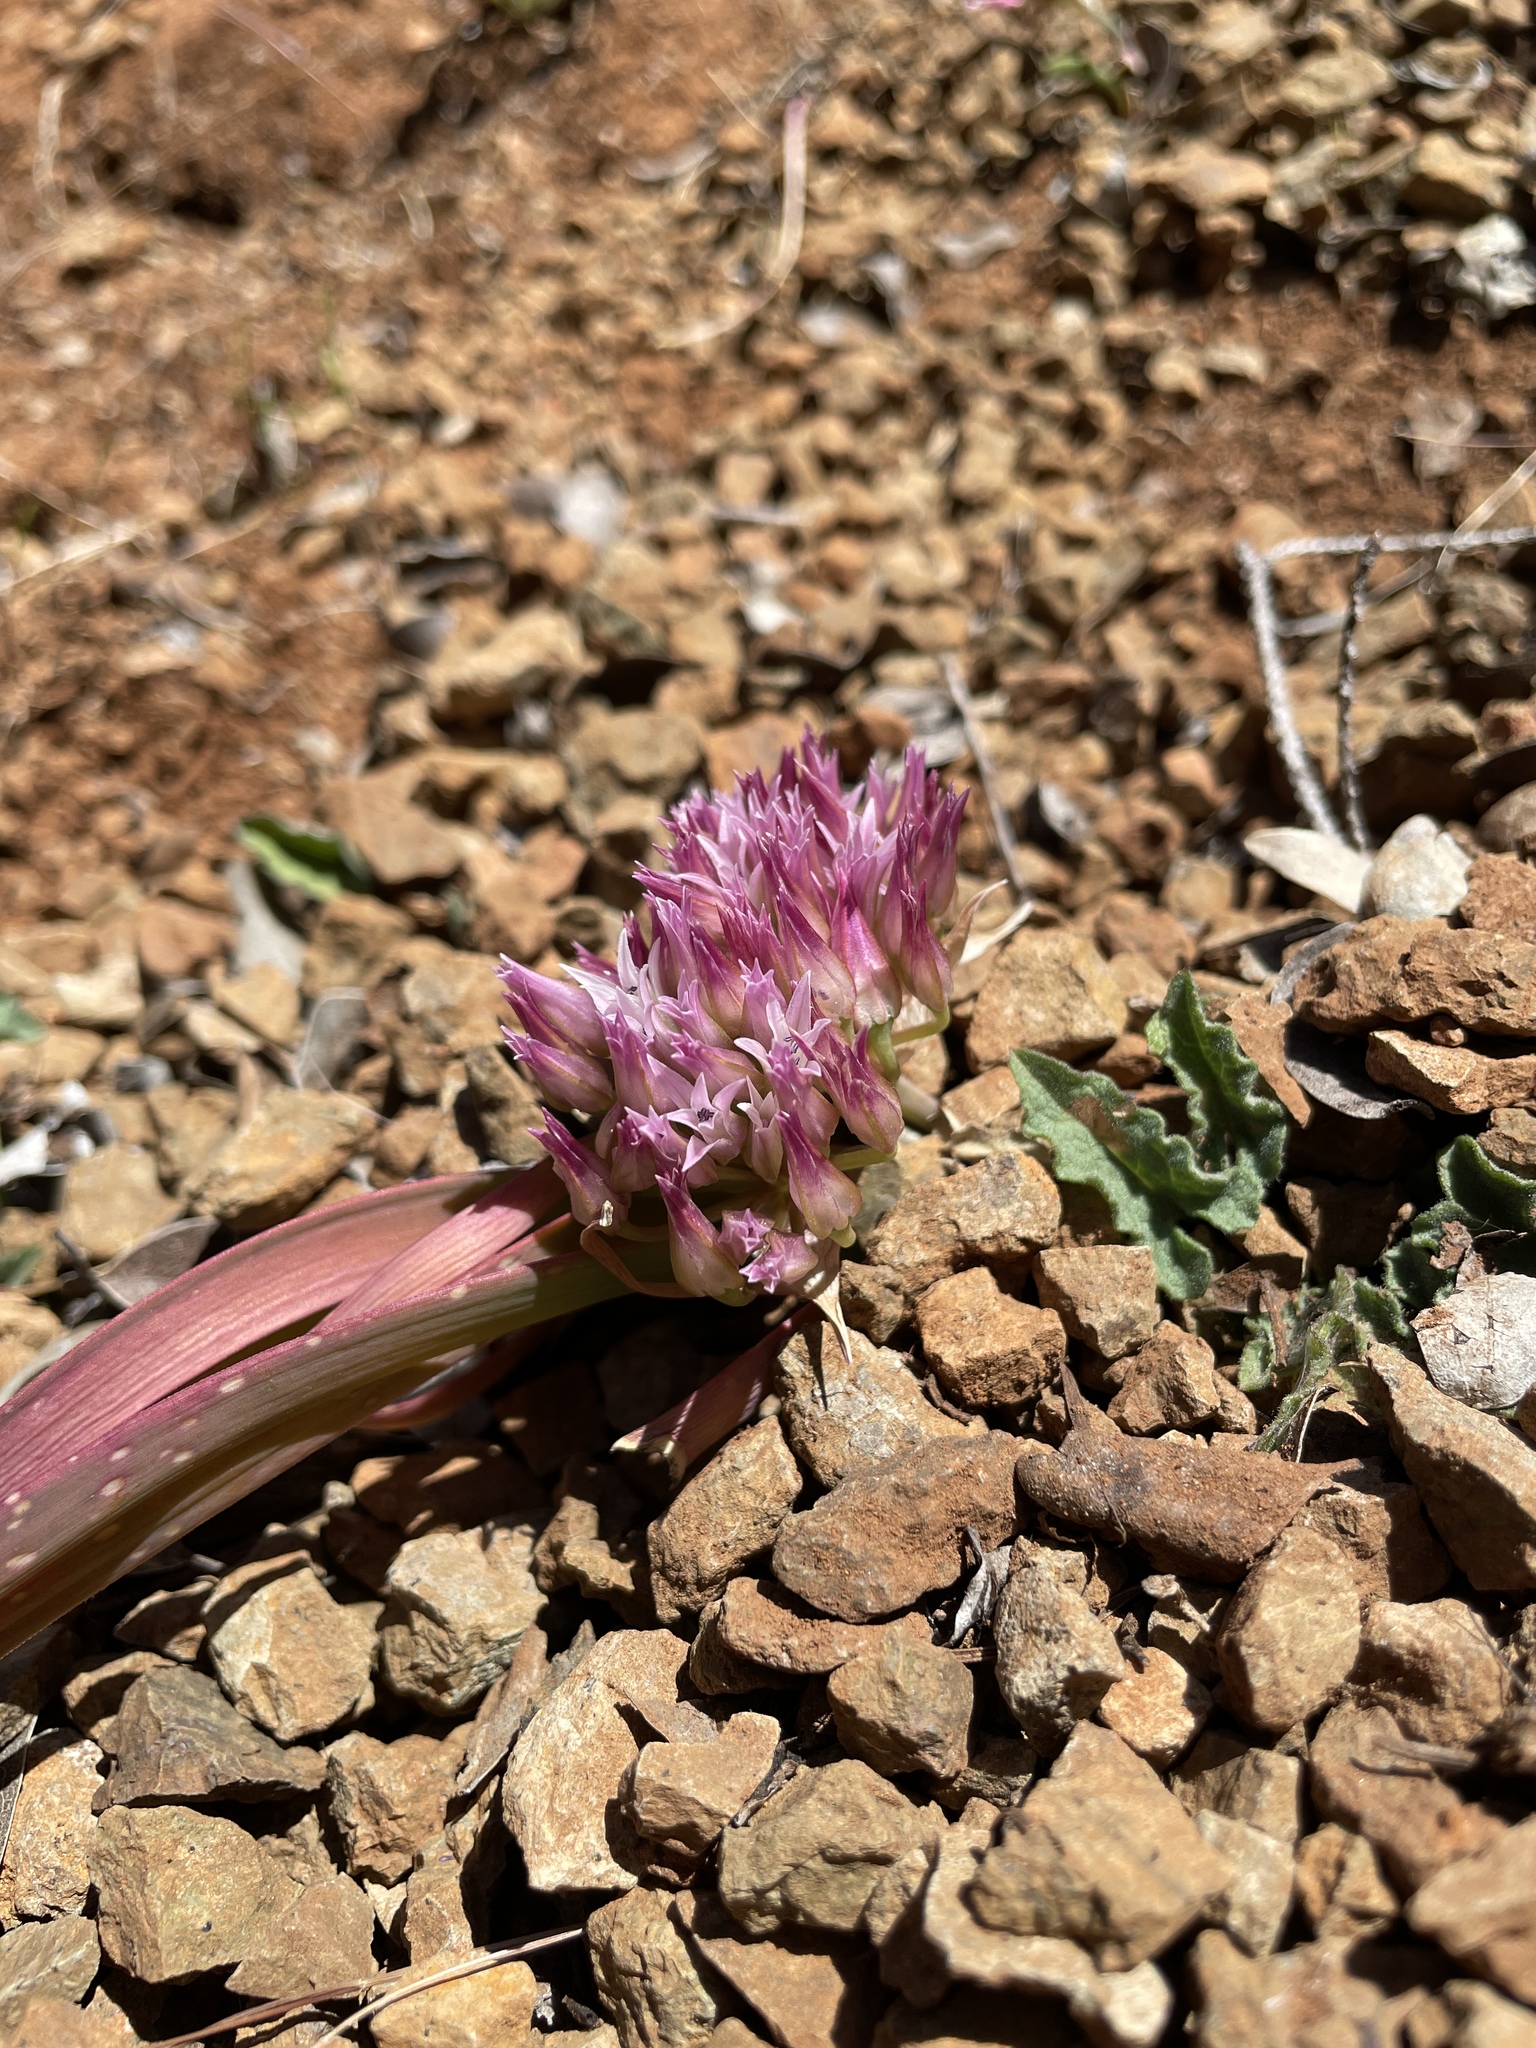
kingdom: Plantae
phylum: Tracheophyta
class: Liliopsida
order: Asparagales
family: Amaryllidaceae
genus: Allium
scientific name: Allium falcifolium
